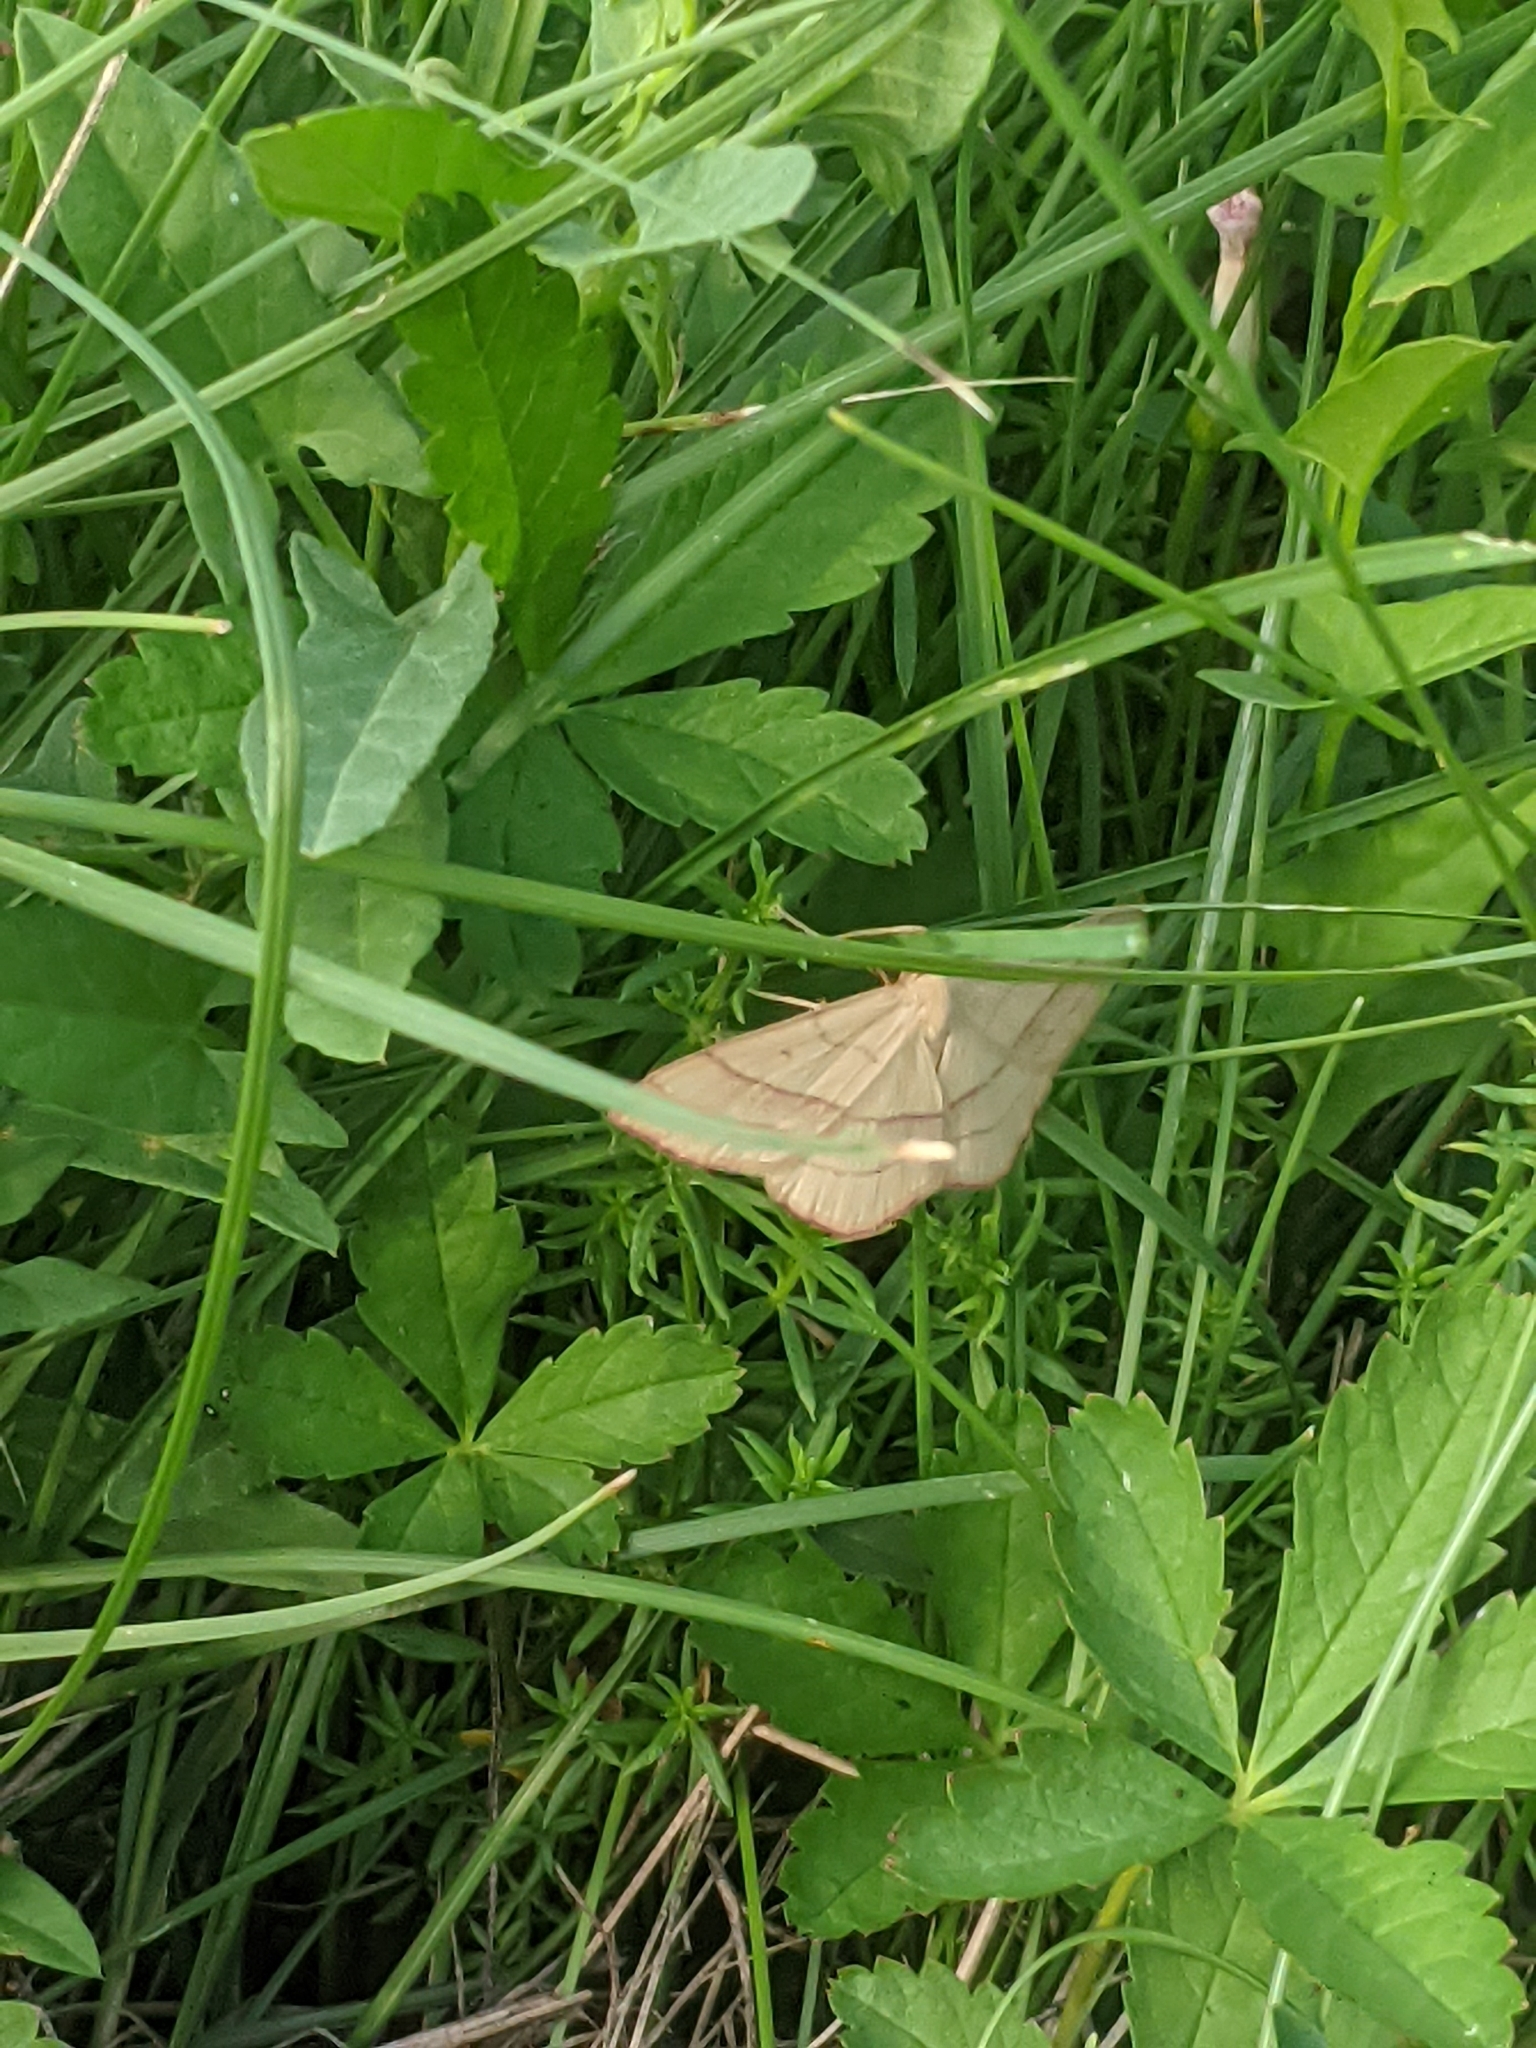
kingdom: Animalia
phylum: Arthropoda
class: Insecta
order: Lepidoptera
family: Geometridae
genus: Rhodostrophia
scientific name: Rhodostrophia vibicaria
